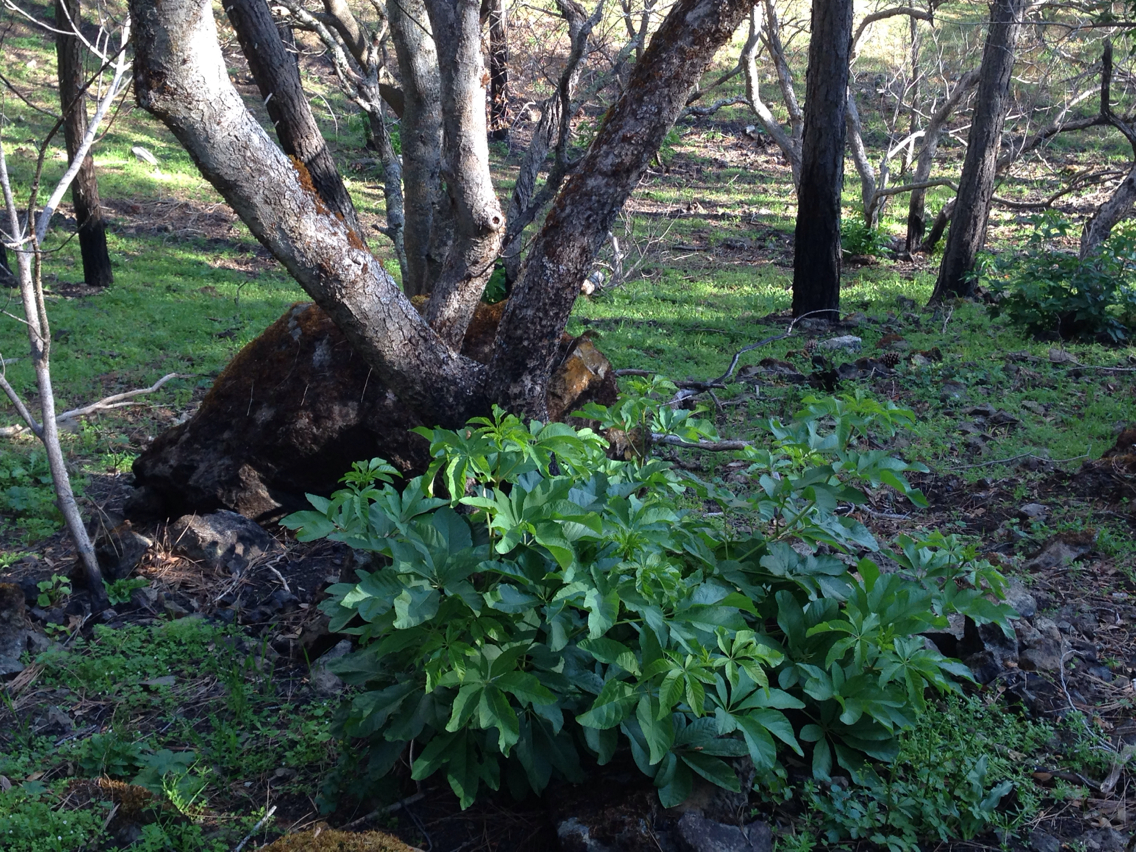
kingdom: Plantae
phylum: Tracheophyta
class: Magnoliopsida
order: Sapindales
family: Sapindaceae
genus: Aesculus
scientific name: Aesculus californica
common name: California buckeye
